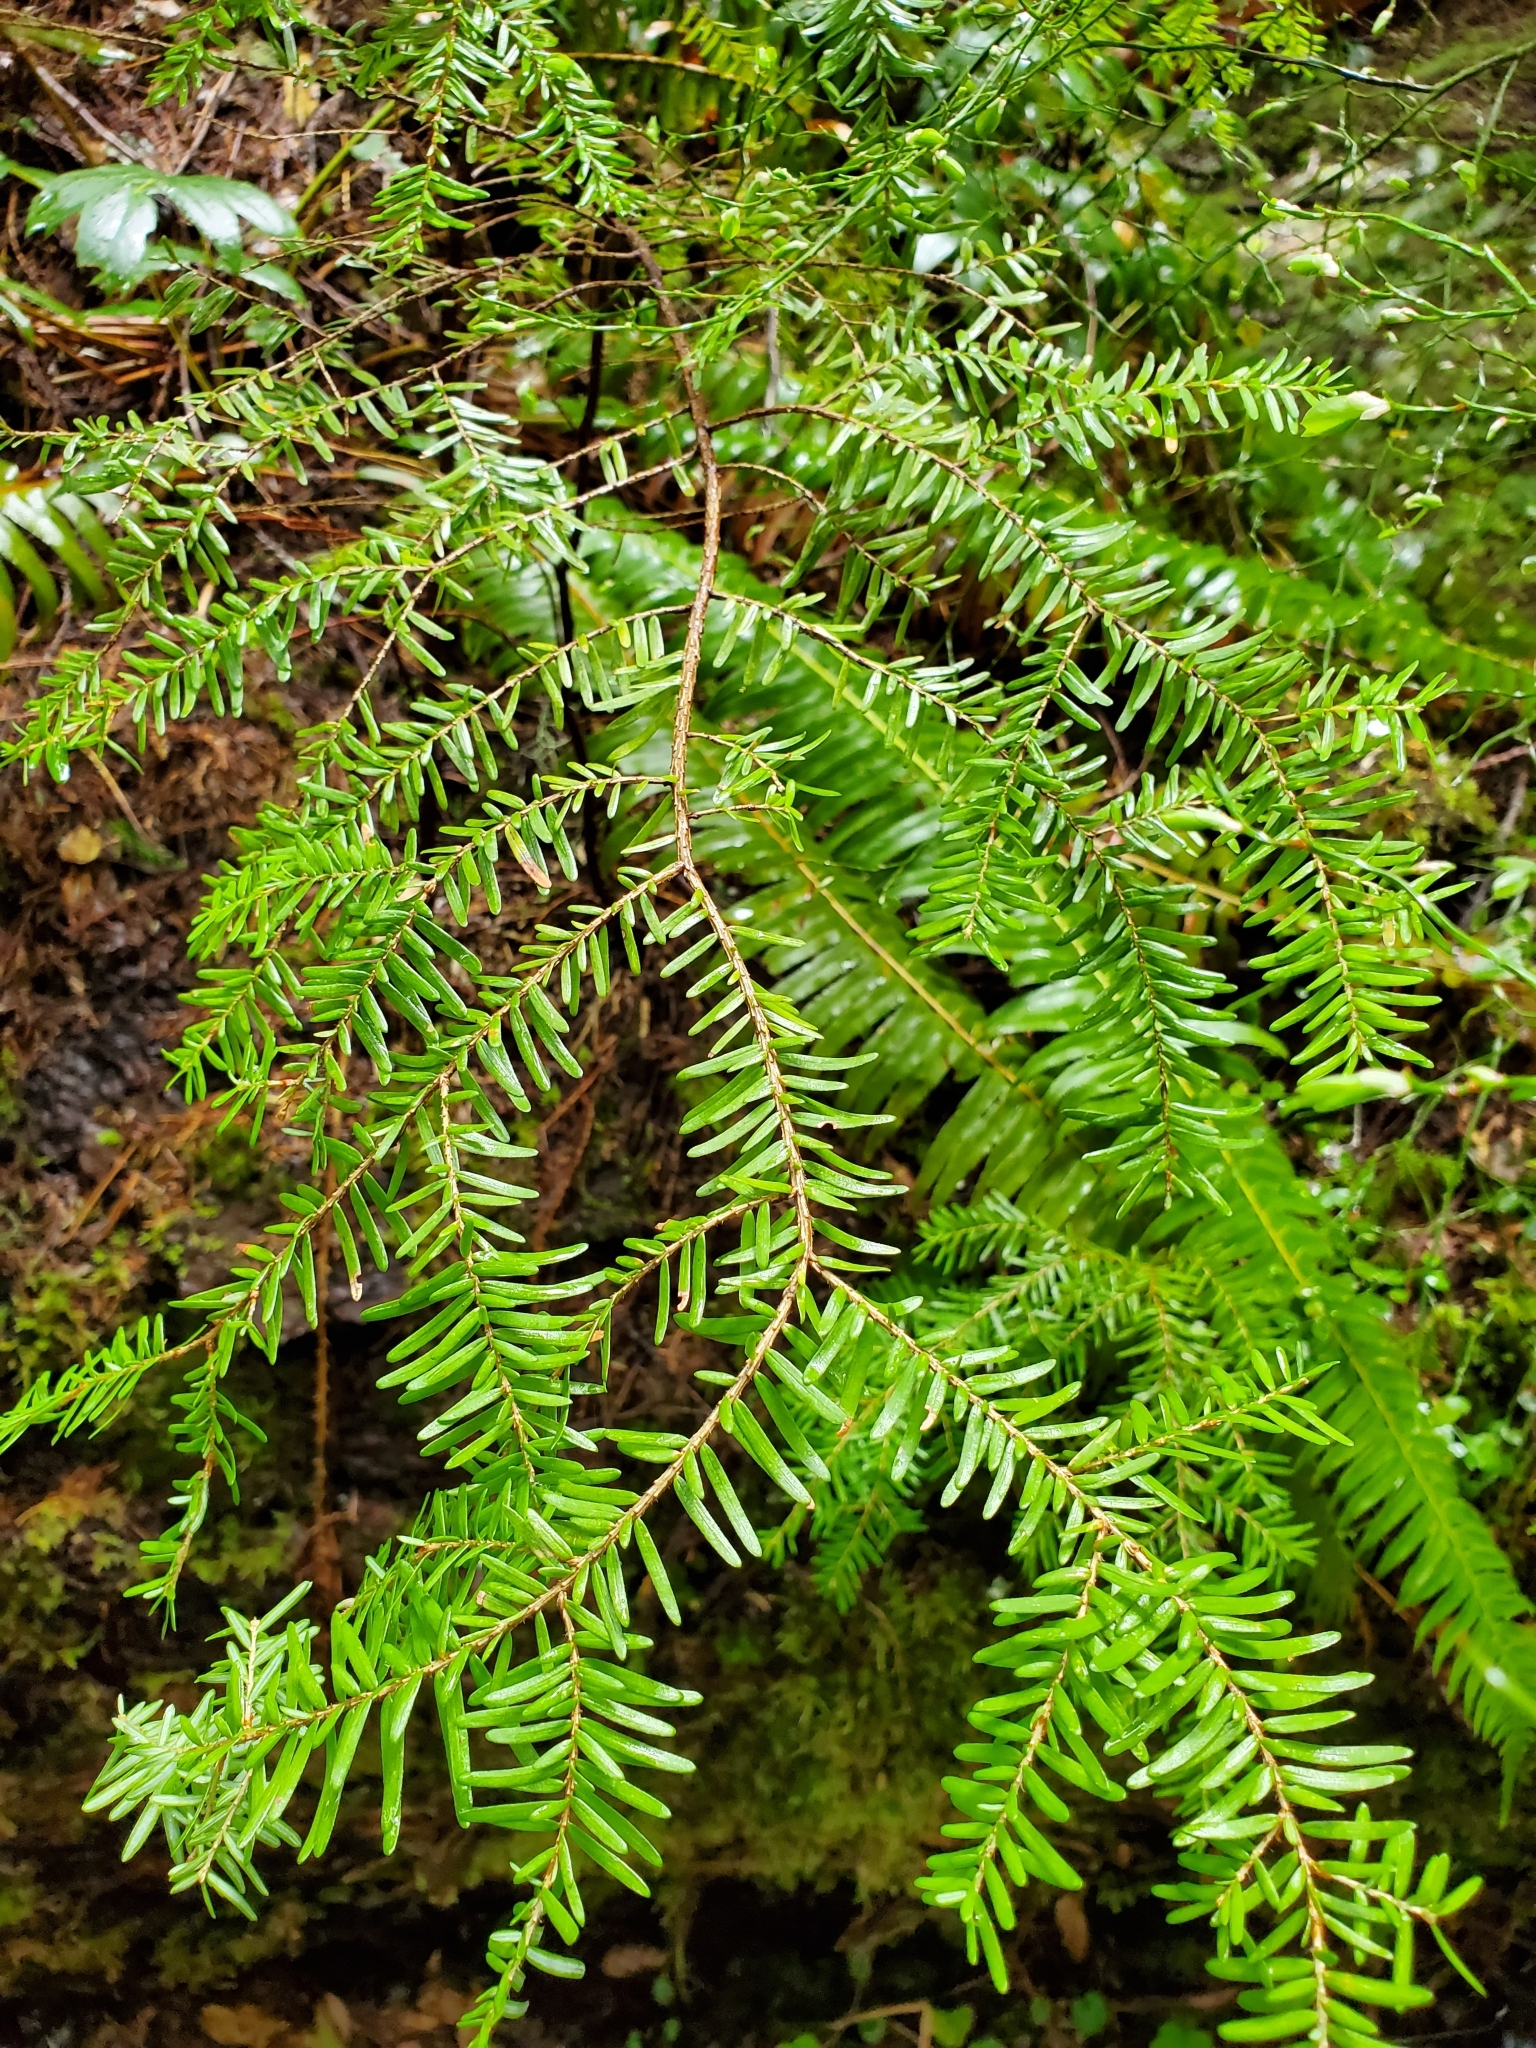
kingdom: Plantae
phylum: Tracheophyta
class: Pinopsida
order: Pinales
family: Pinaceae
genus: Tsuga
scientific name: Tsuga heterophylla
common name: Western hemlock
